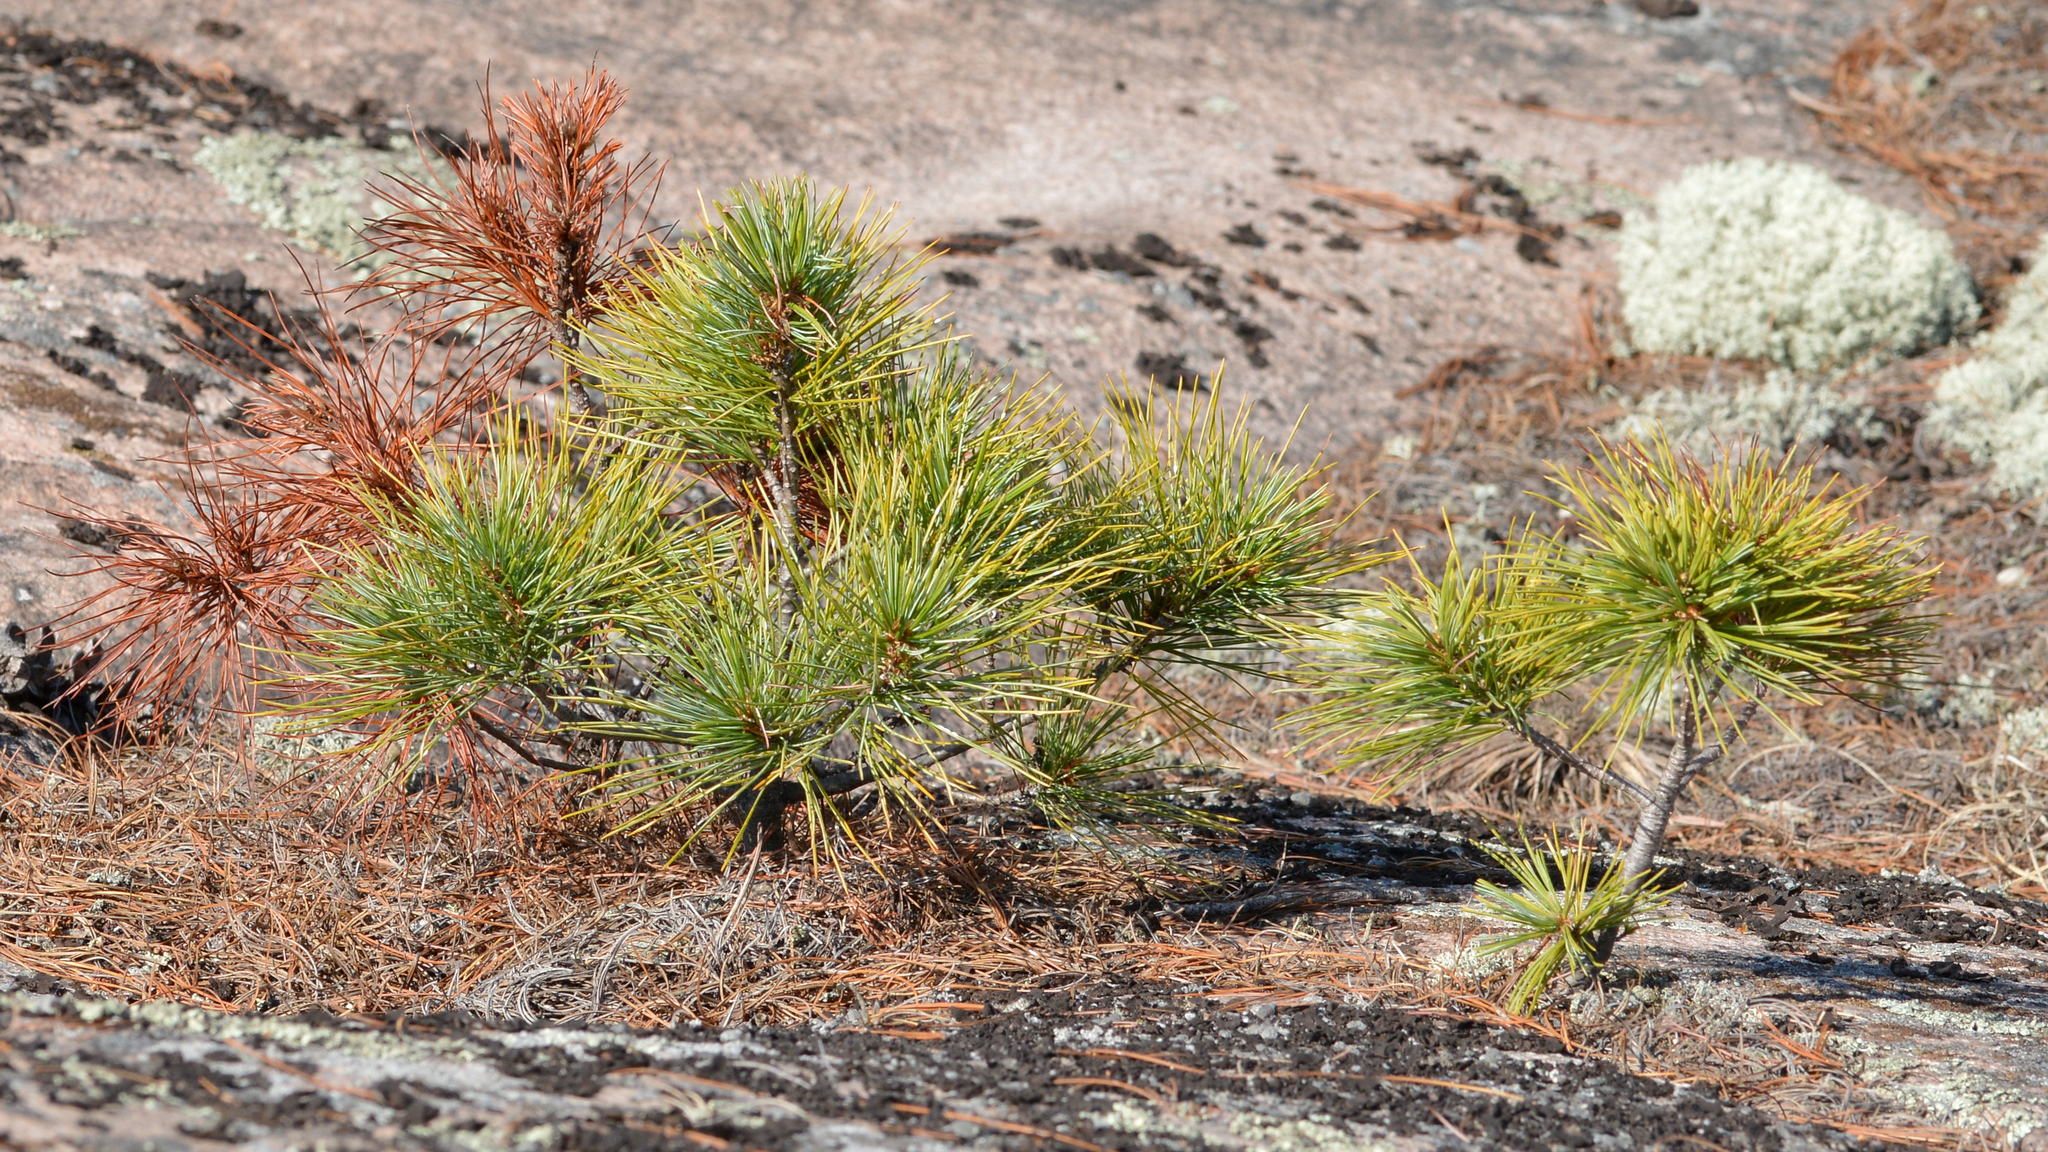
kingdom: Plantae
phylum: Tracheophyta
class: Pinopsida
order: Pinales
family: Pinaceae
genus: Pinus
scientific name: Pinus strobus
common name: Weymouth pine
